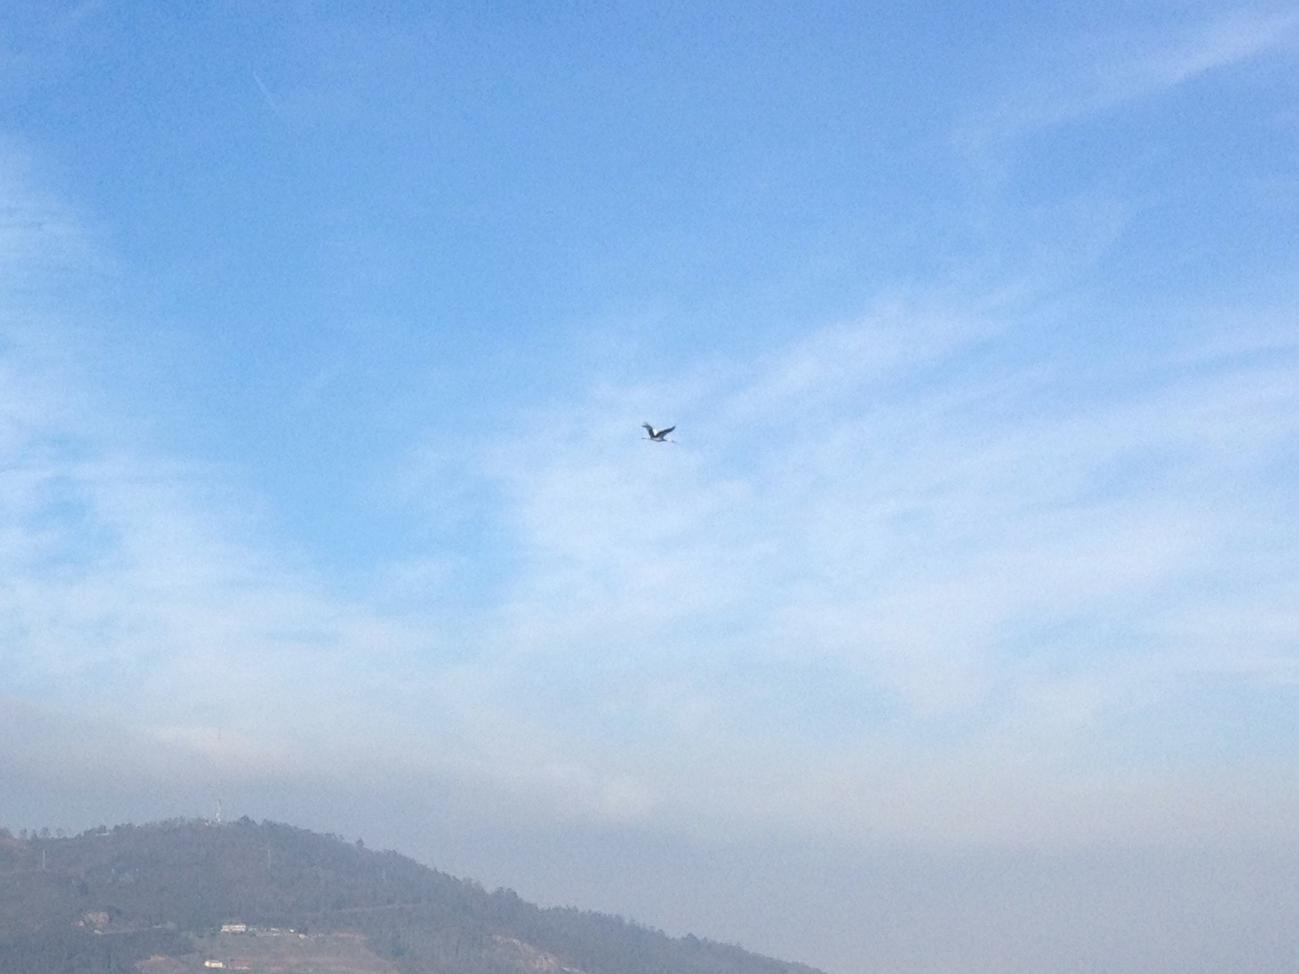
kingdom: Animalia
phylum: Chordata
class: Aves
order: Ciconiiformes
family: Ciconiidae
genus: Ciconia
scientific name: Ciconia ciconia
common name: White stork
